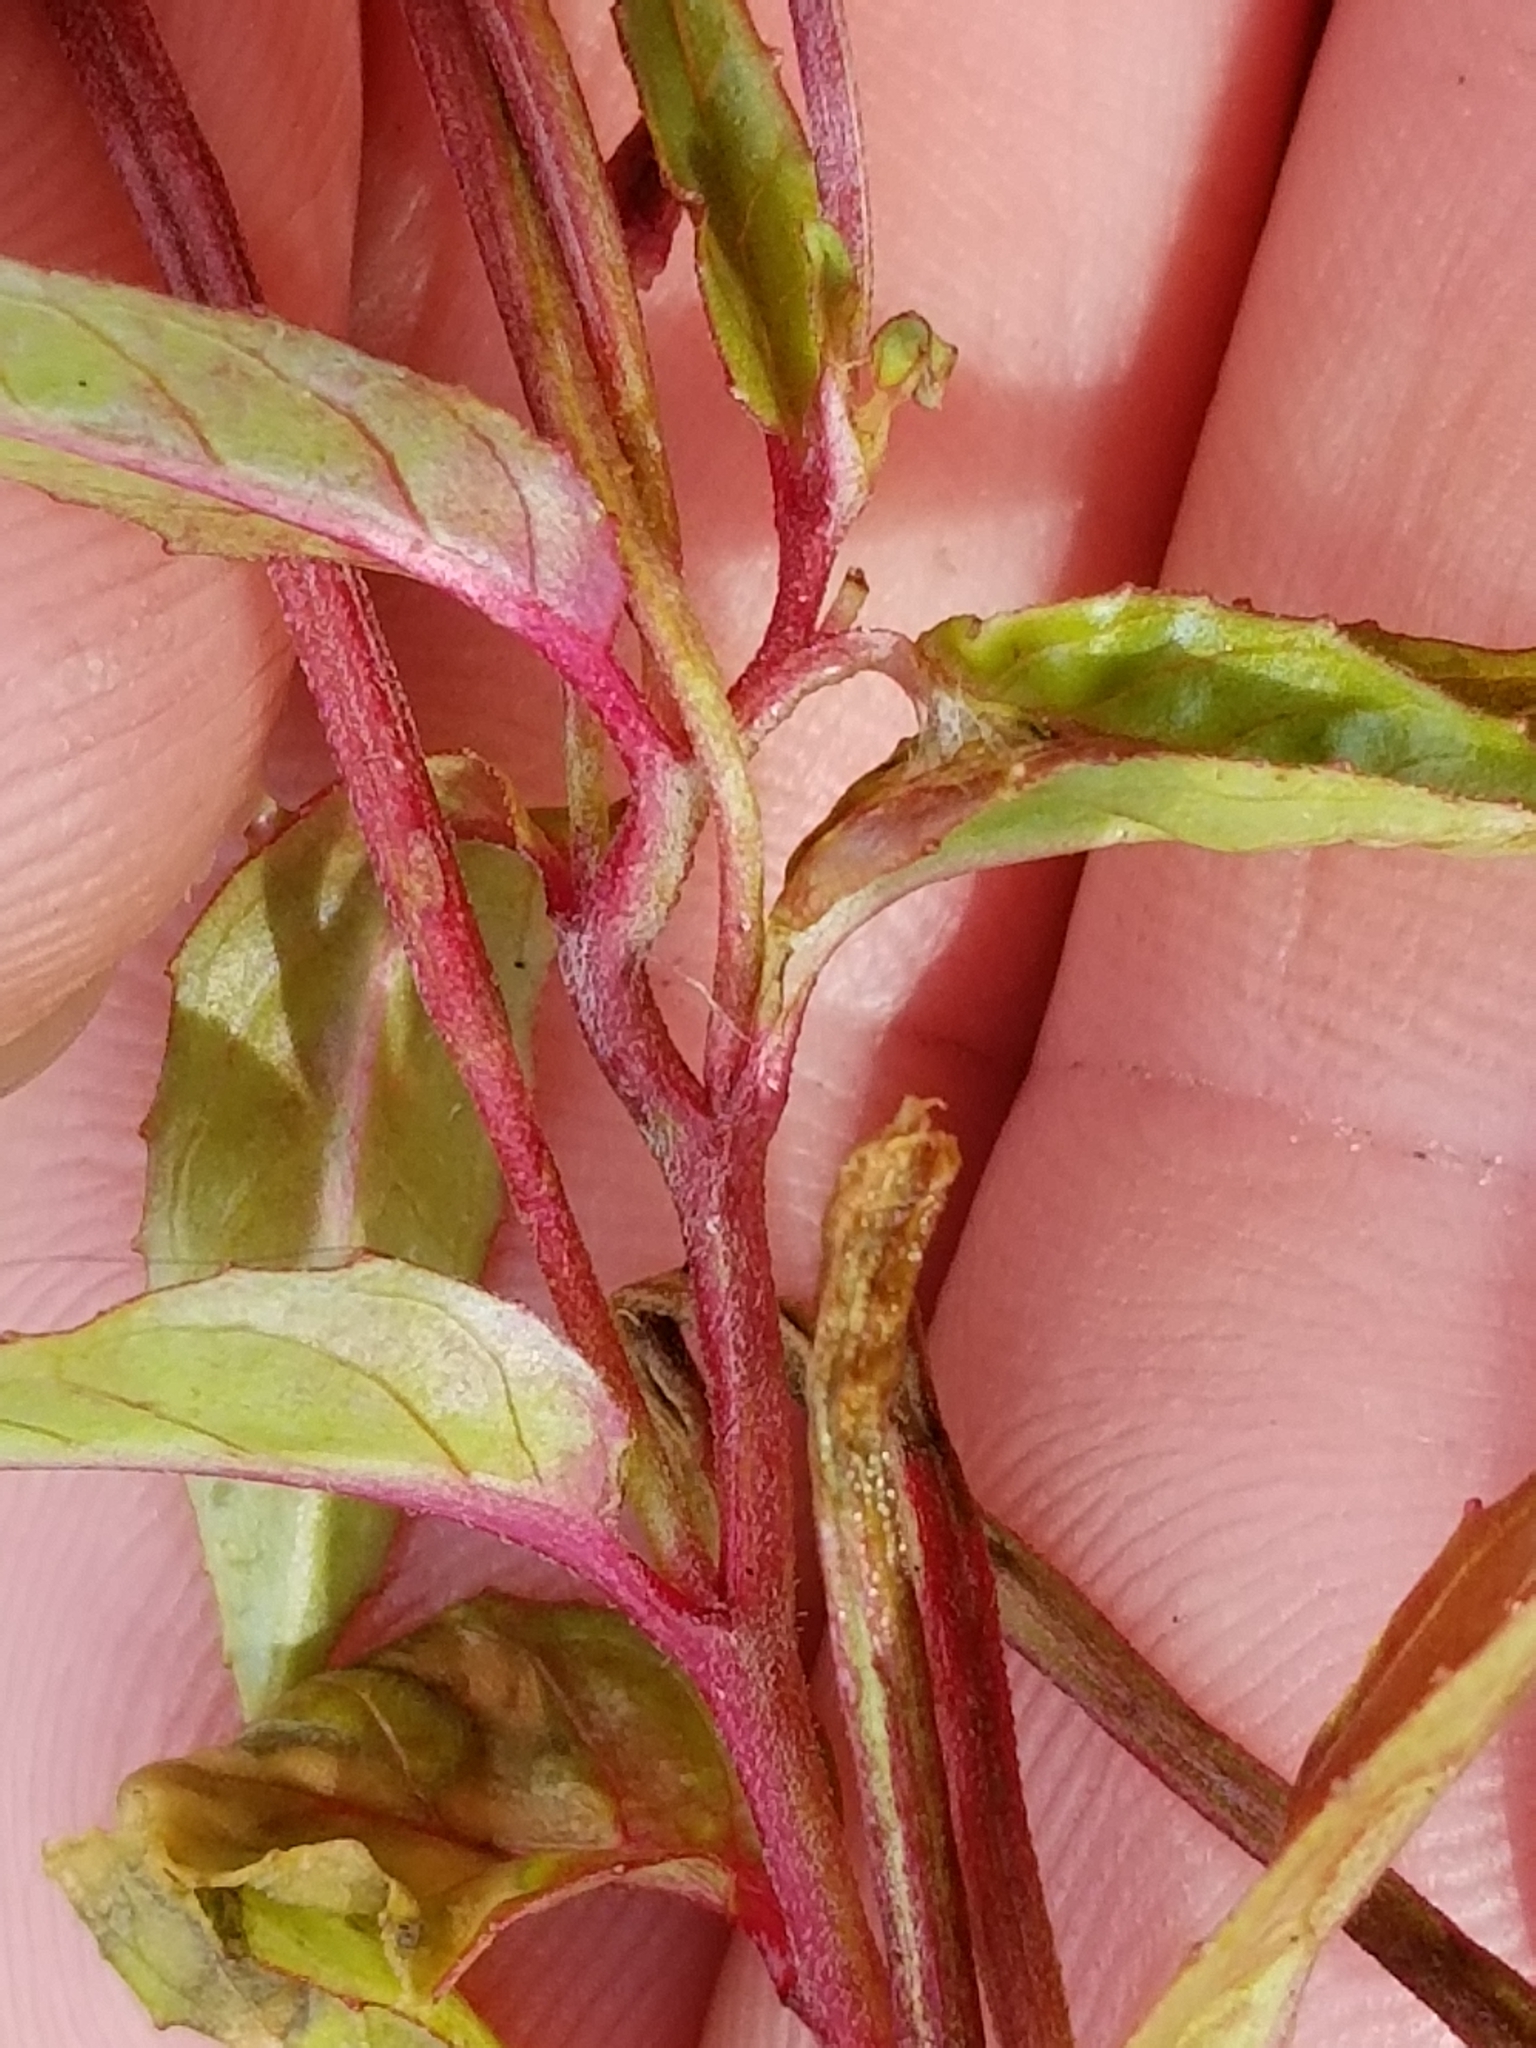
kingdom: Plantae
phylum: Tracheophyta
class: Magnoliopsida
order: Myrtales
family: Onagraceae
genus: Epilobium
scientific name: Epilobium ciliatum
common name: American willowherb
